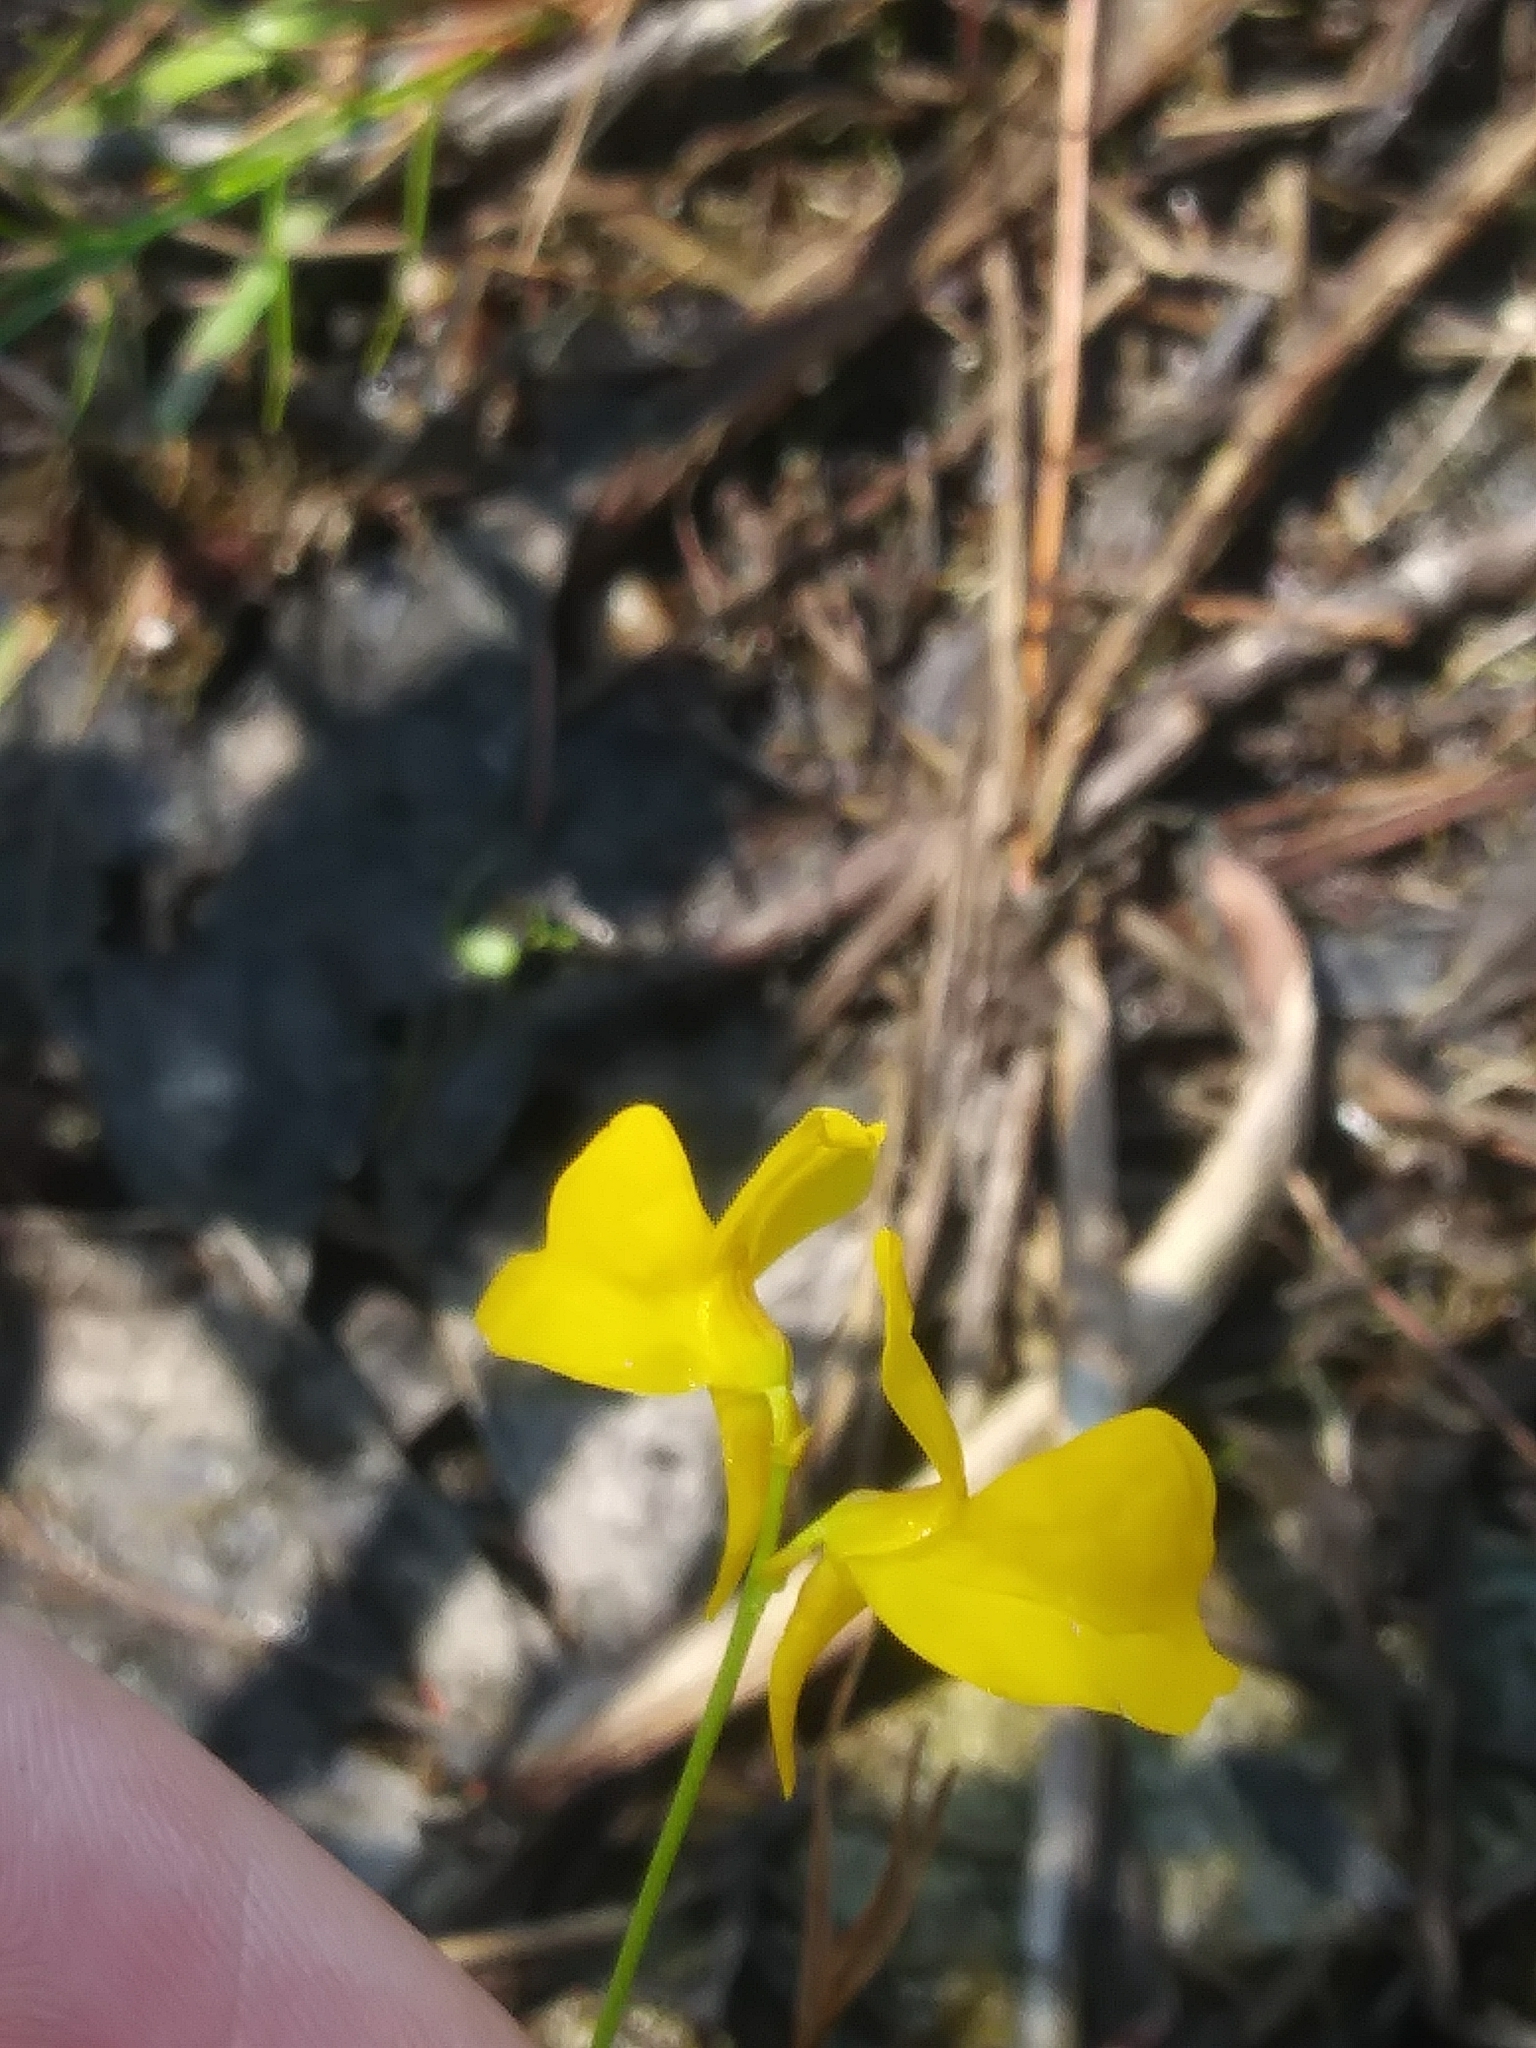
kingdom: Plantae
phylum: Tracheophyta
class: Magnoliopsida
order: Lamiales
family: Lentibulariaceae
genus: Utricularia
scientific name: Utricularia cornuta
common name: Horned bladderwort
